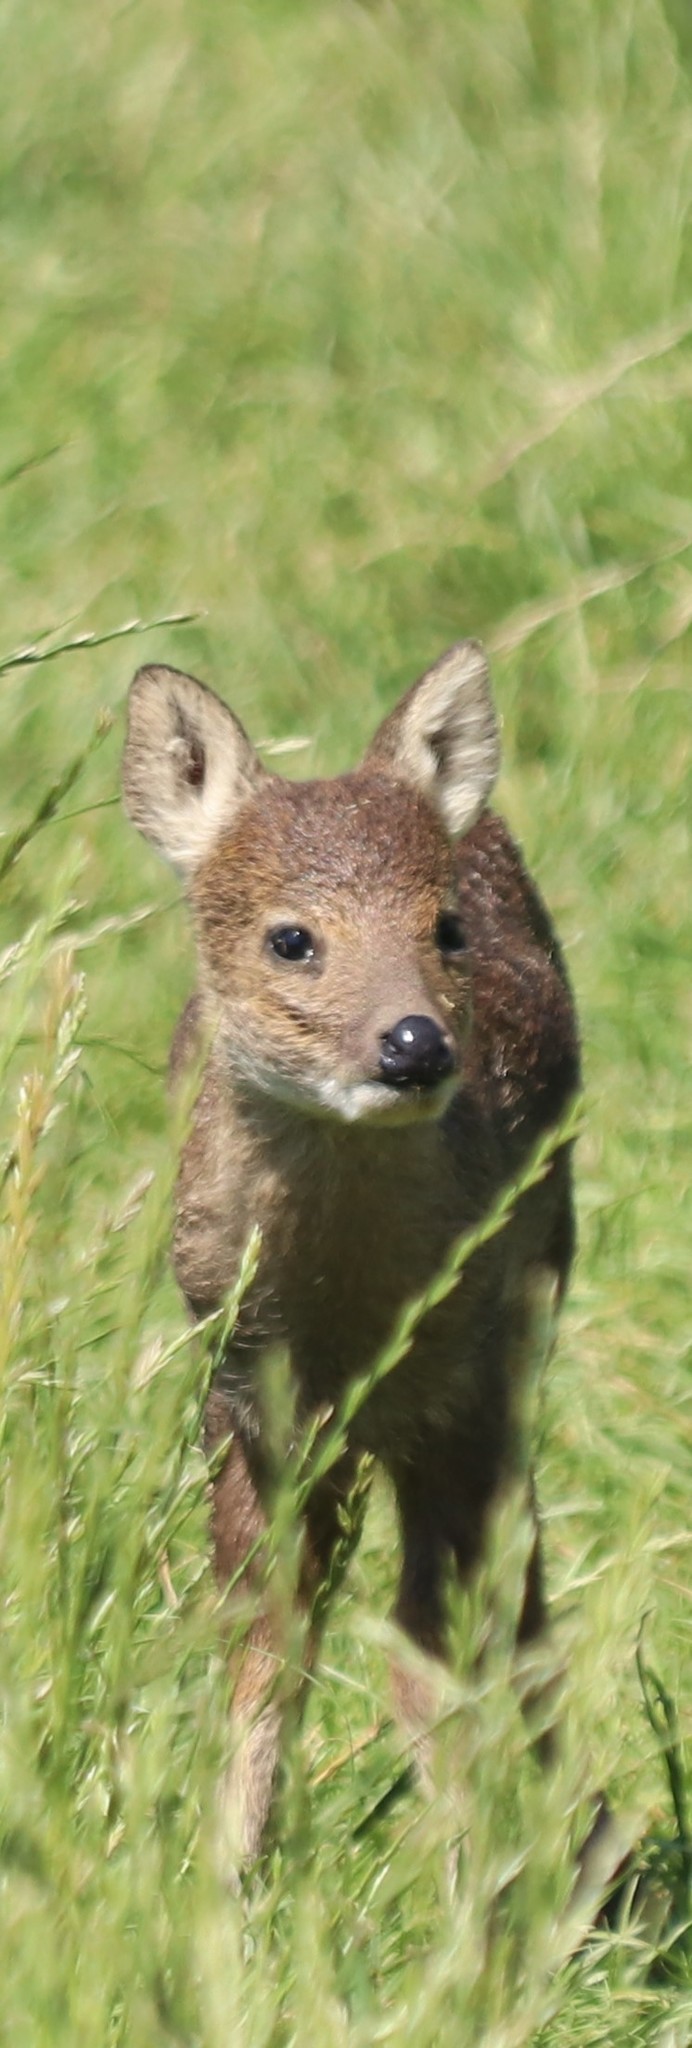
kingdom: Animalia
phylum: Chordata
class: Mammalia
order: Artiodactyla
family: Cervidae
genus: Hydropotes
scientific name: Hydropotes inermis
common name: Chinese water deer
